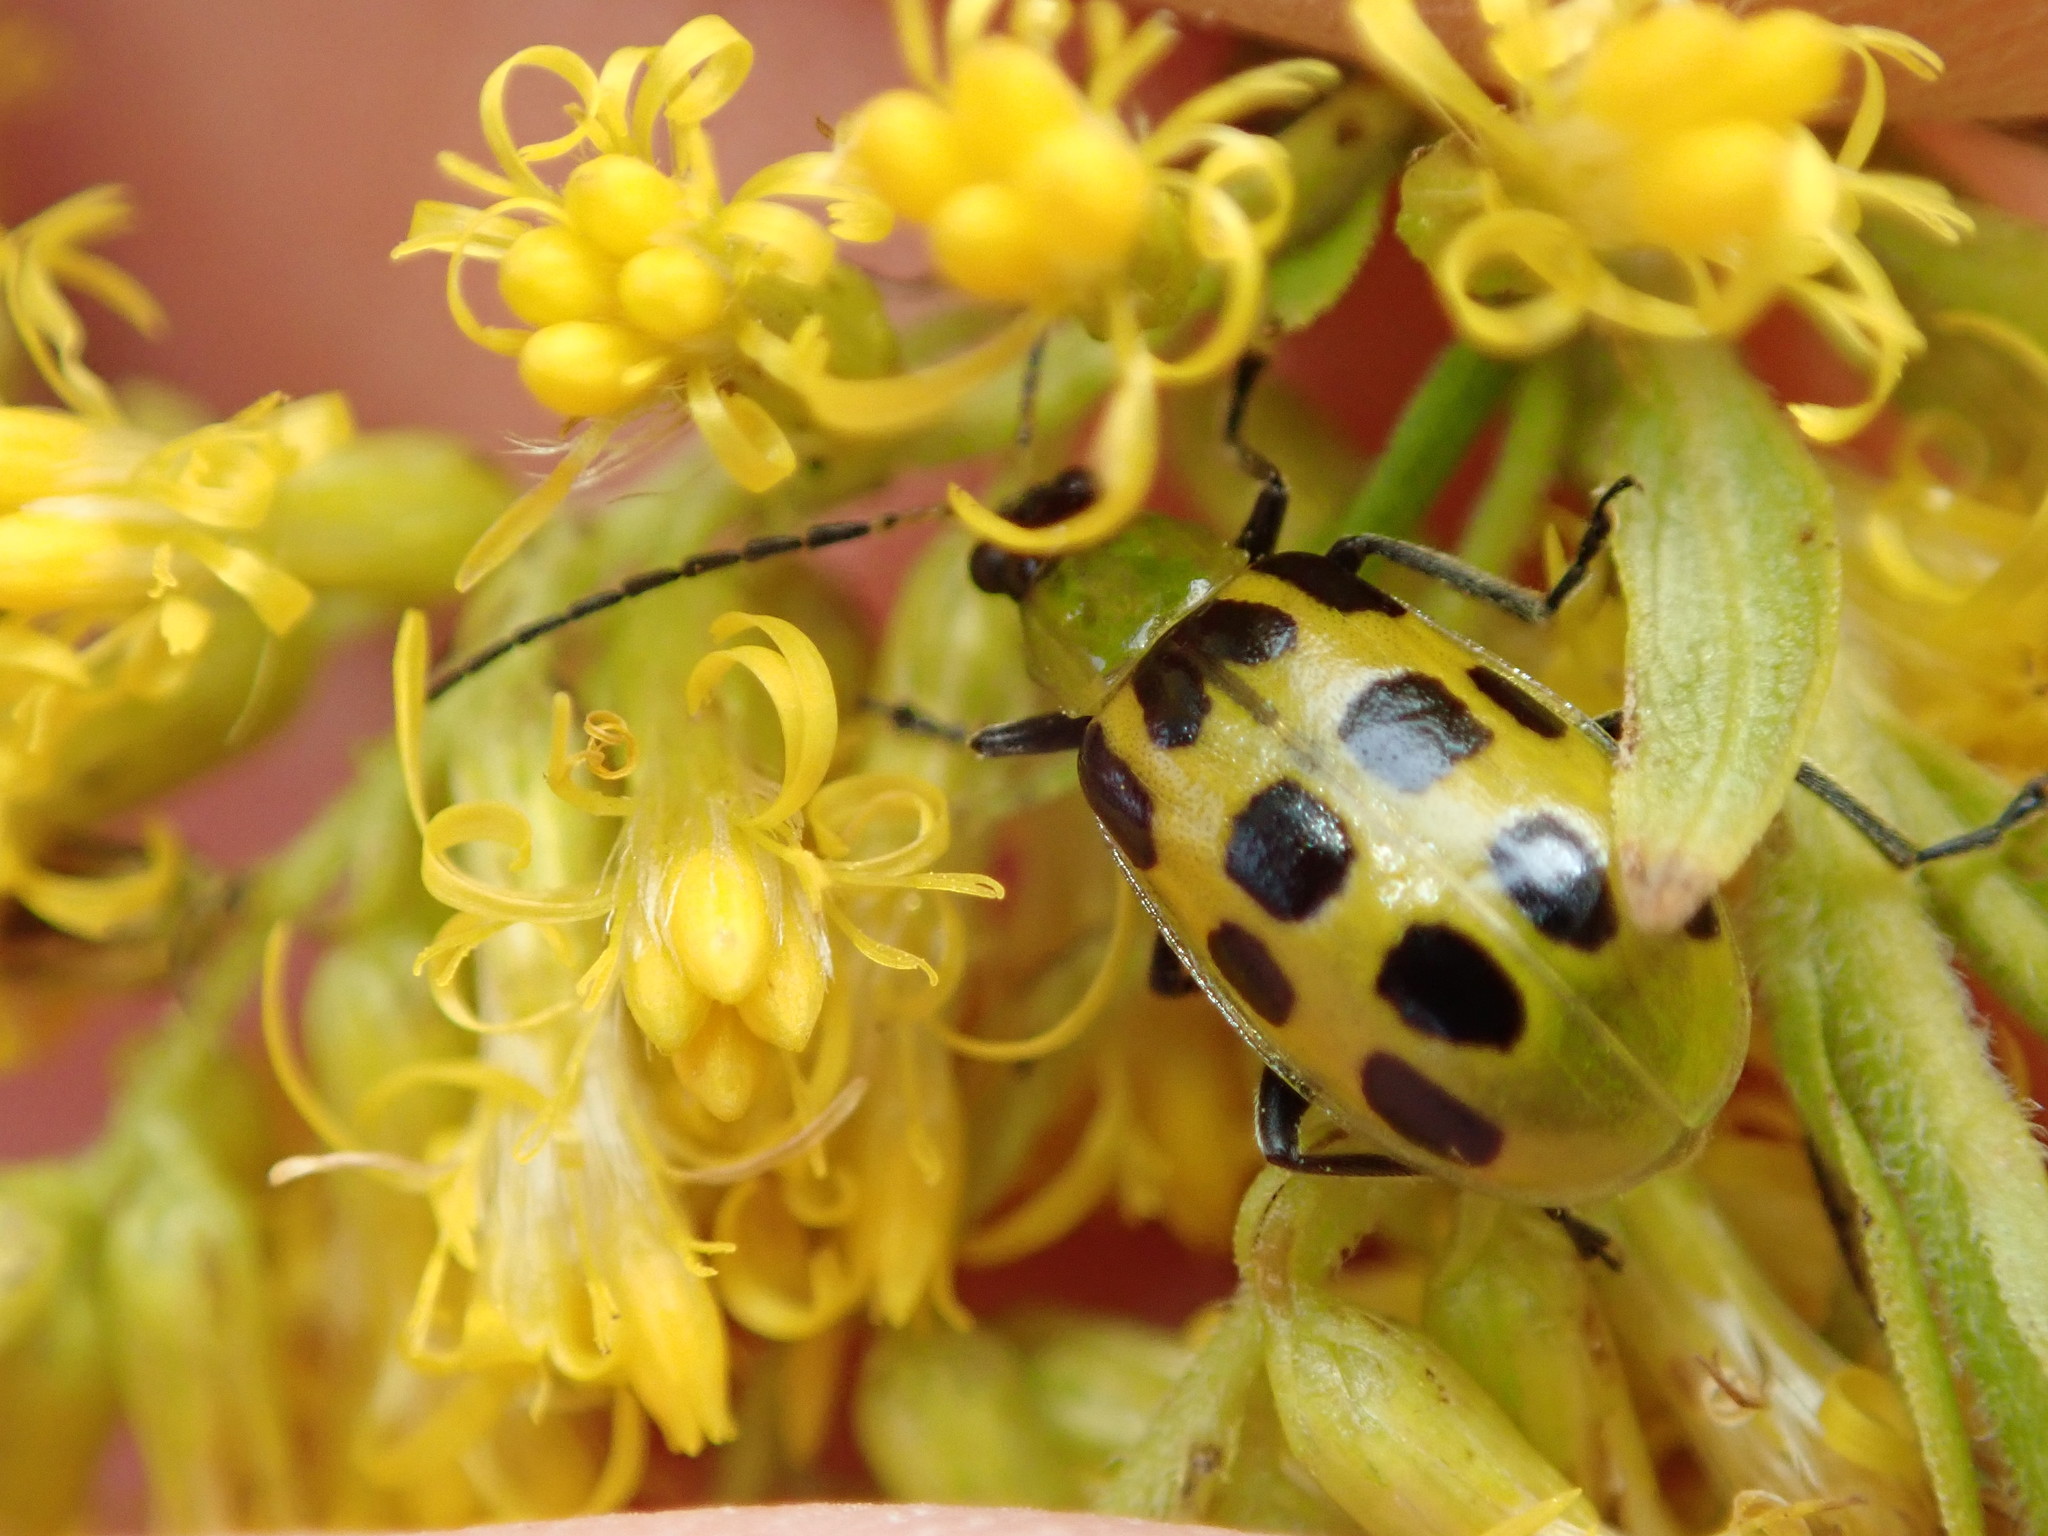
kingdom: Animalia
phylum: Arthropoda
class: Insecta
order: Coleoptera
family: Chrysomelidae
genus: Diabrotica
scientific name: Diabrotica undecimpunctata
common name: Spotted cucumber beetle
